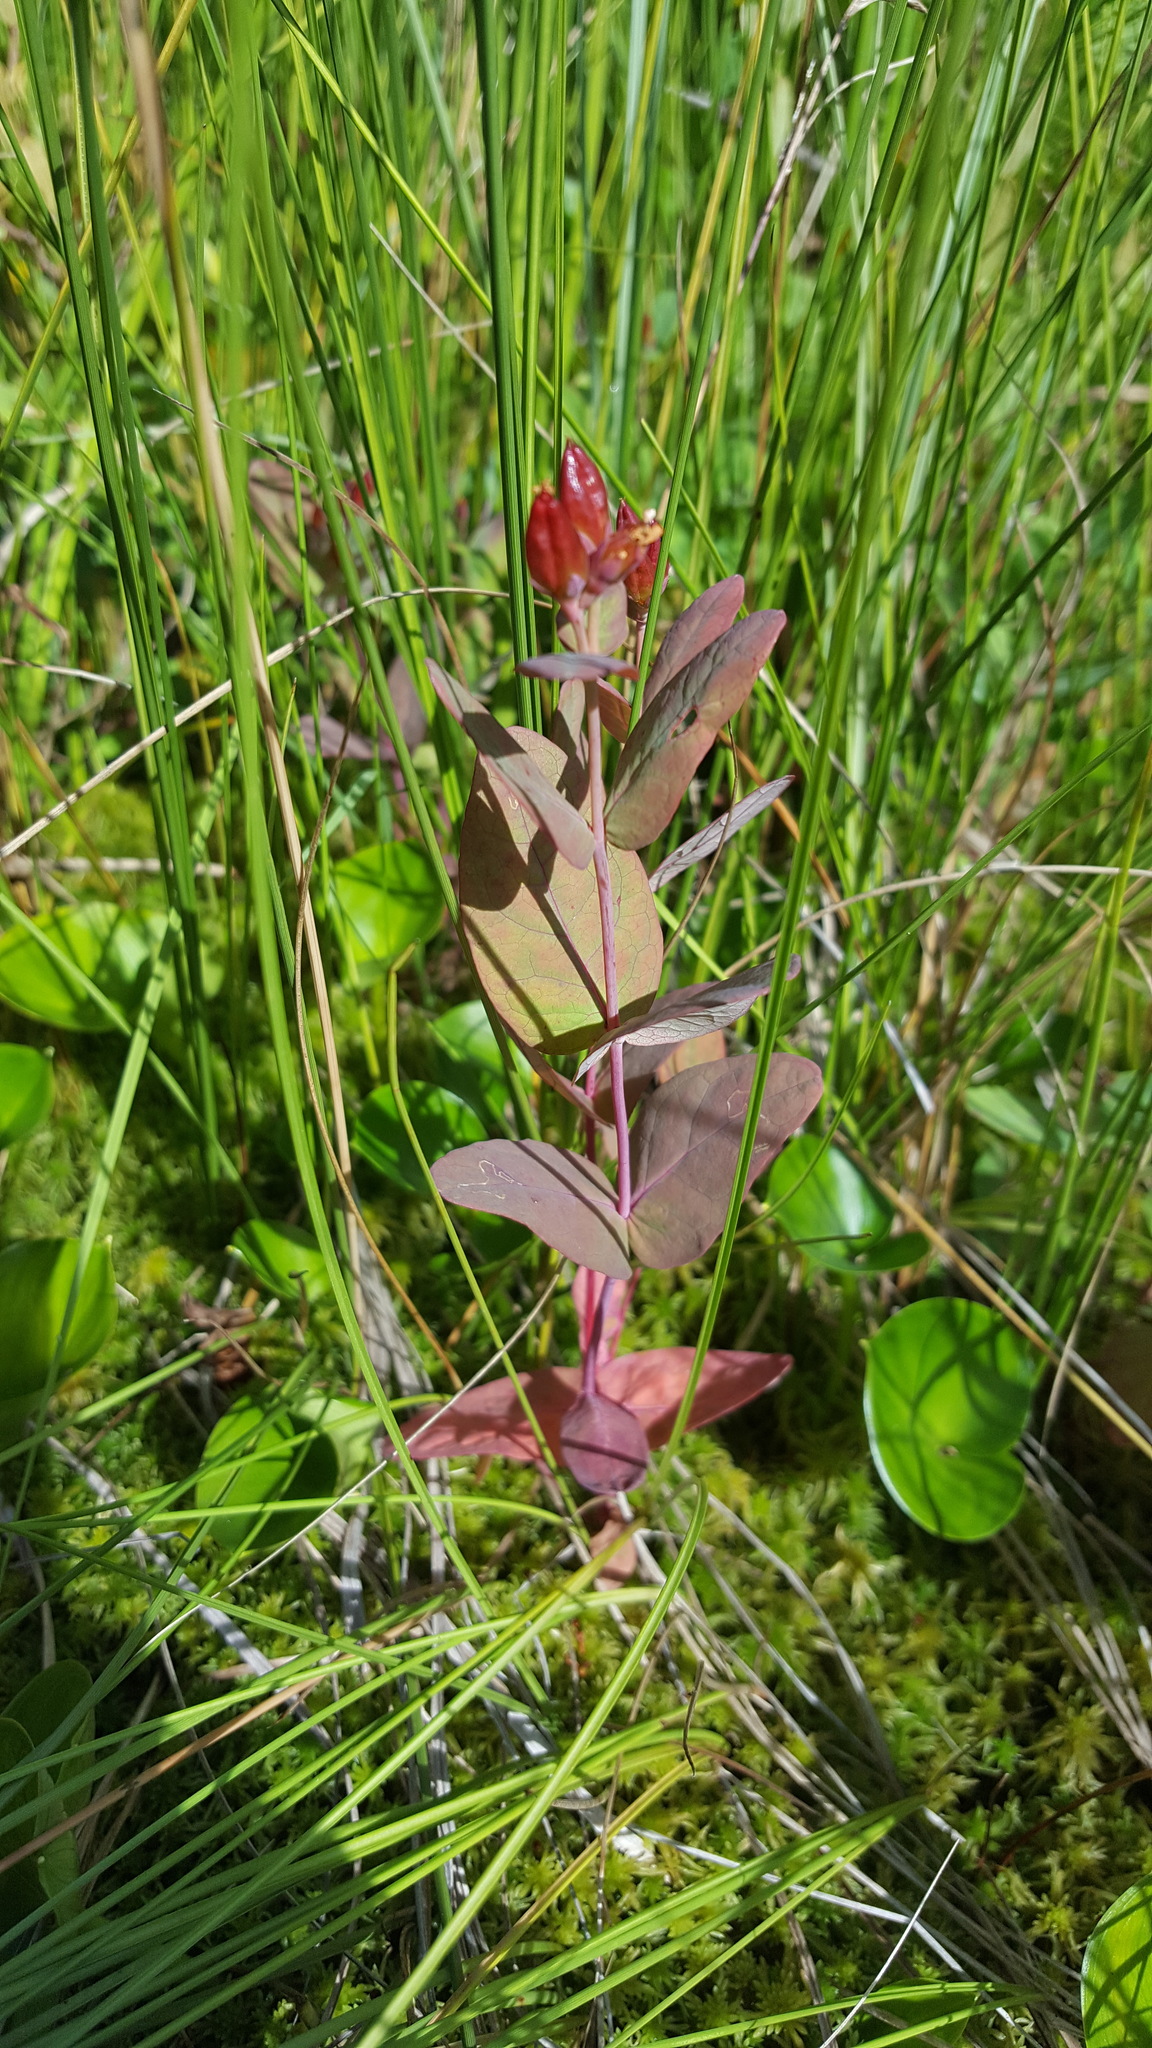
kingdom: Plantae
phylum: Tracheophyta
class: Magnoliopsida
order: Malpighiales
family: Hypericaceae
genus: Triadenum
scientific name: Triadenum fraseri
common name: Fraser's marsh st. johnswort
